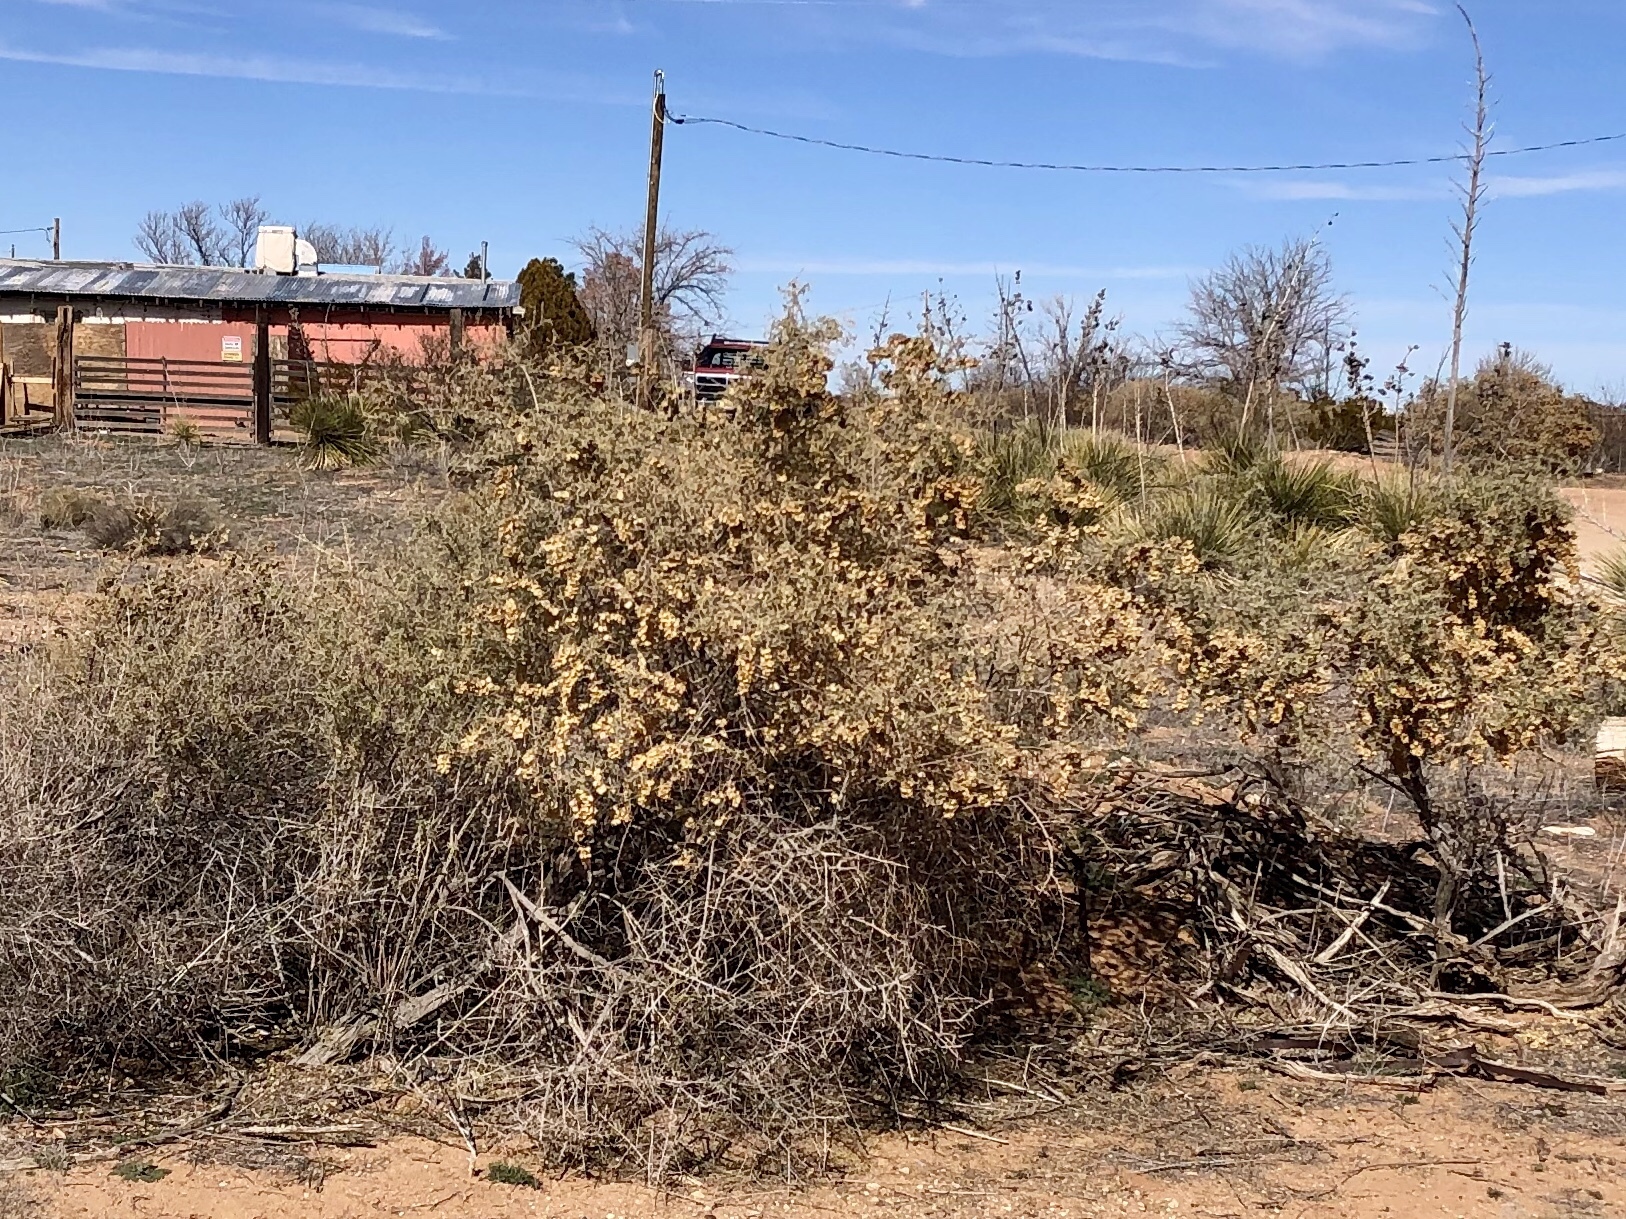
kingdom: Plantae
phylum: Tracheophyta
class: Magnoliopsida
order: Caryophyllales
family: Amaranthaceae
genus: Atriplex
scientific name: Atriplex canescens
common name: Four-wing saltbush
